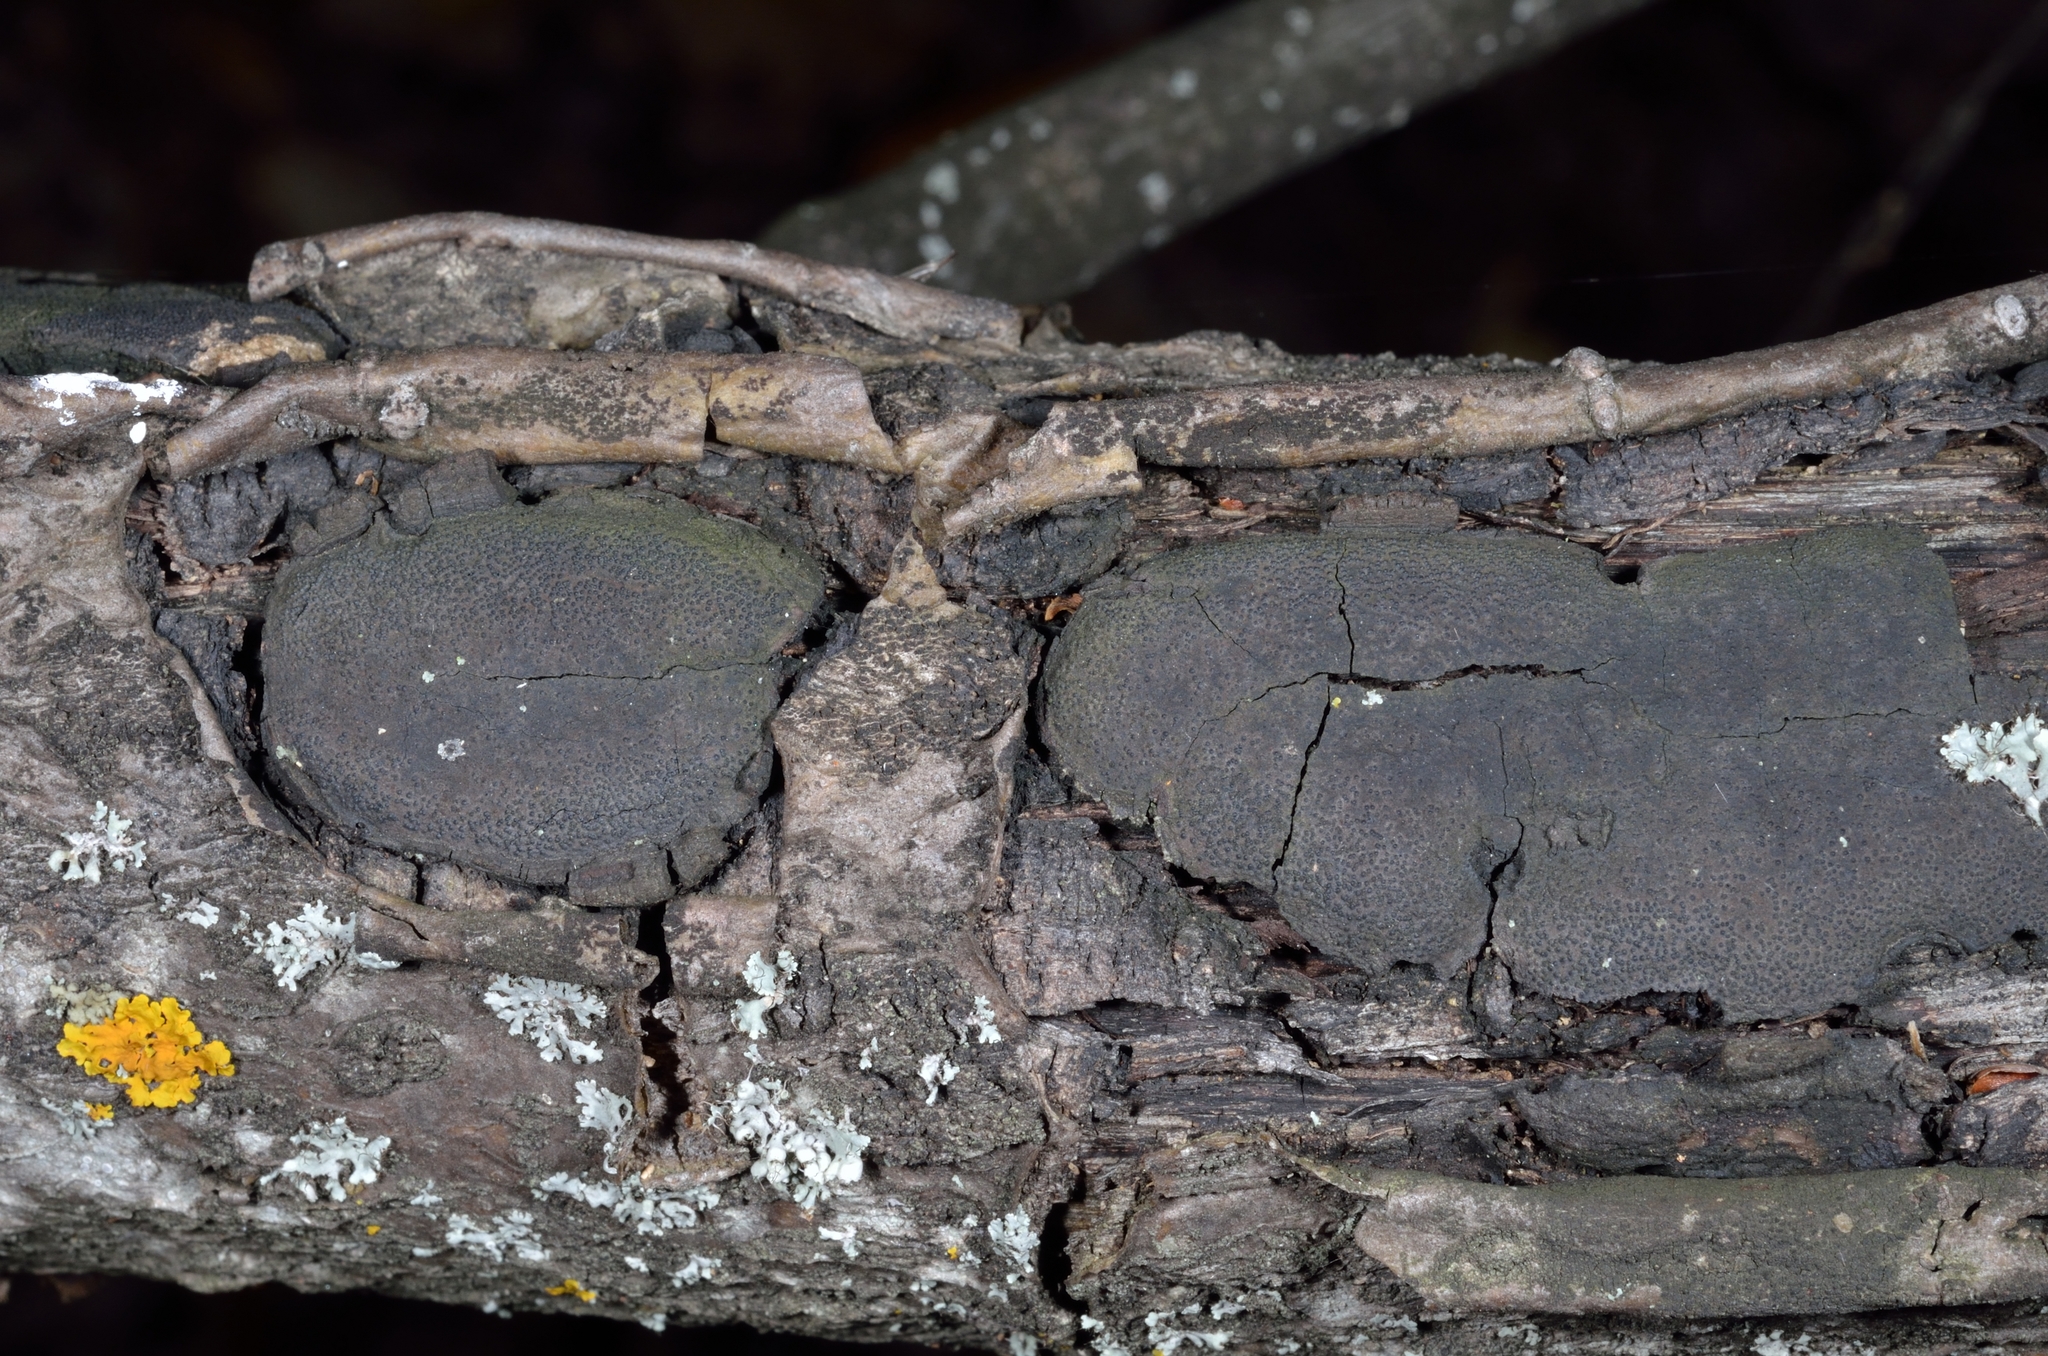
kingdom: Fungi
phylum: Ascomycota
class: Sordariomycetes
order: Xylariales
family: Graphostromataceae
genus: Biscogniauxia
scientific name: Biscogniauxia mediterranea
